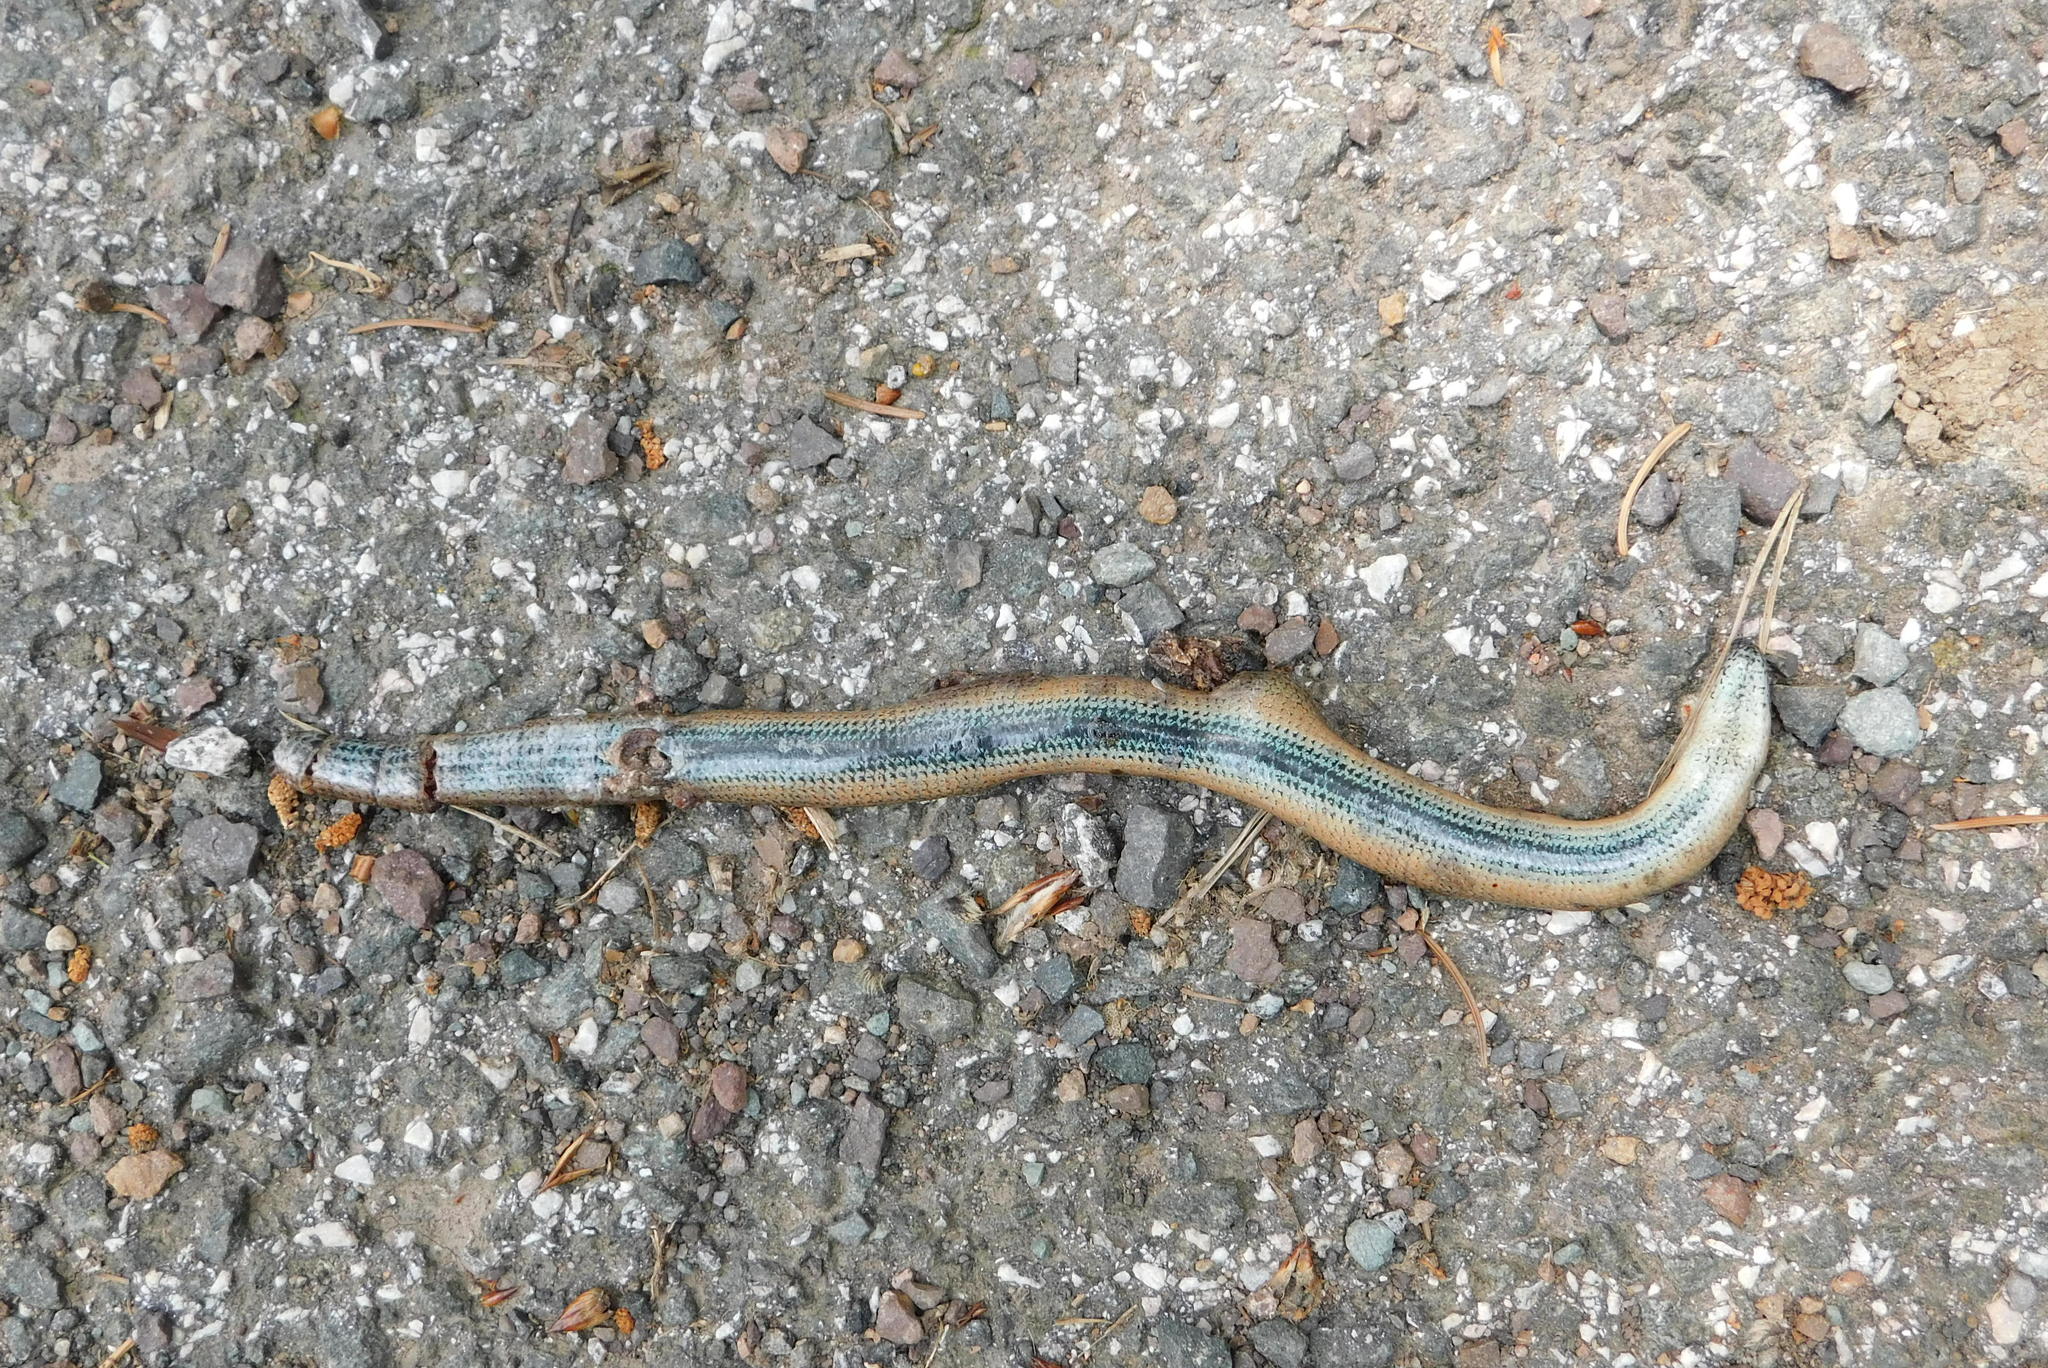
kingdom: Animalia
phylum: Chordata
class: Squamata
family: Anguidae
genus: Anguis
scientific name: Anguis fragilis
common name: Slow worm
